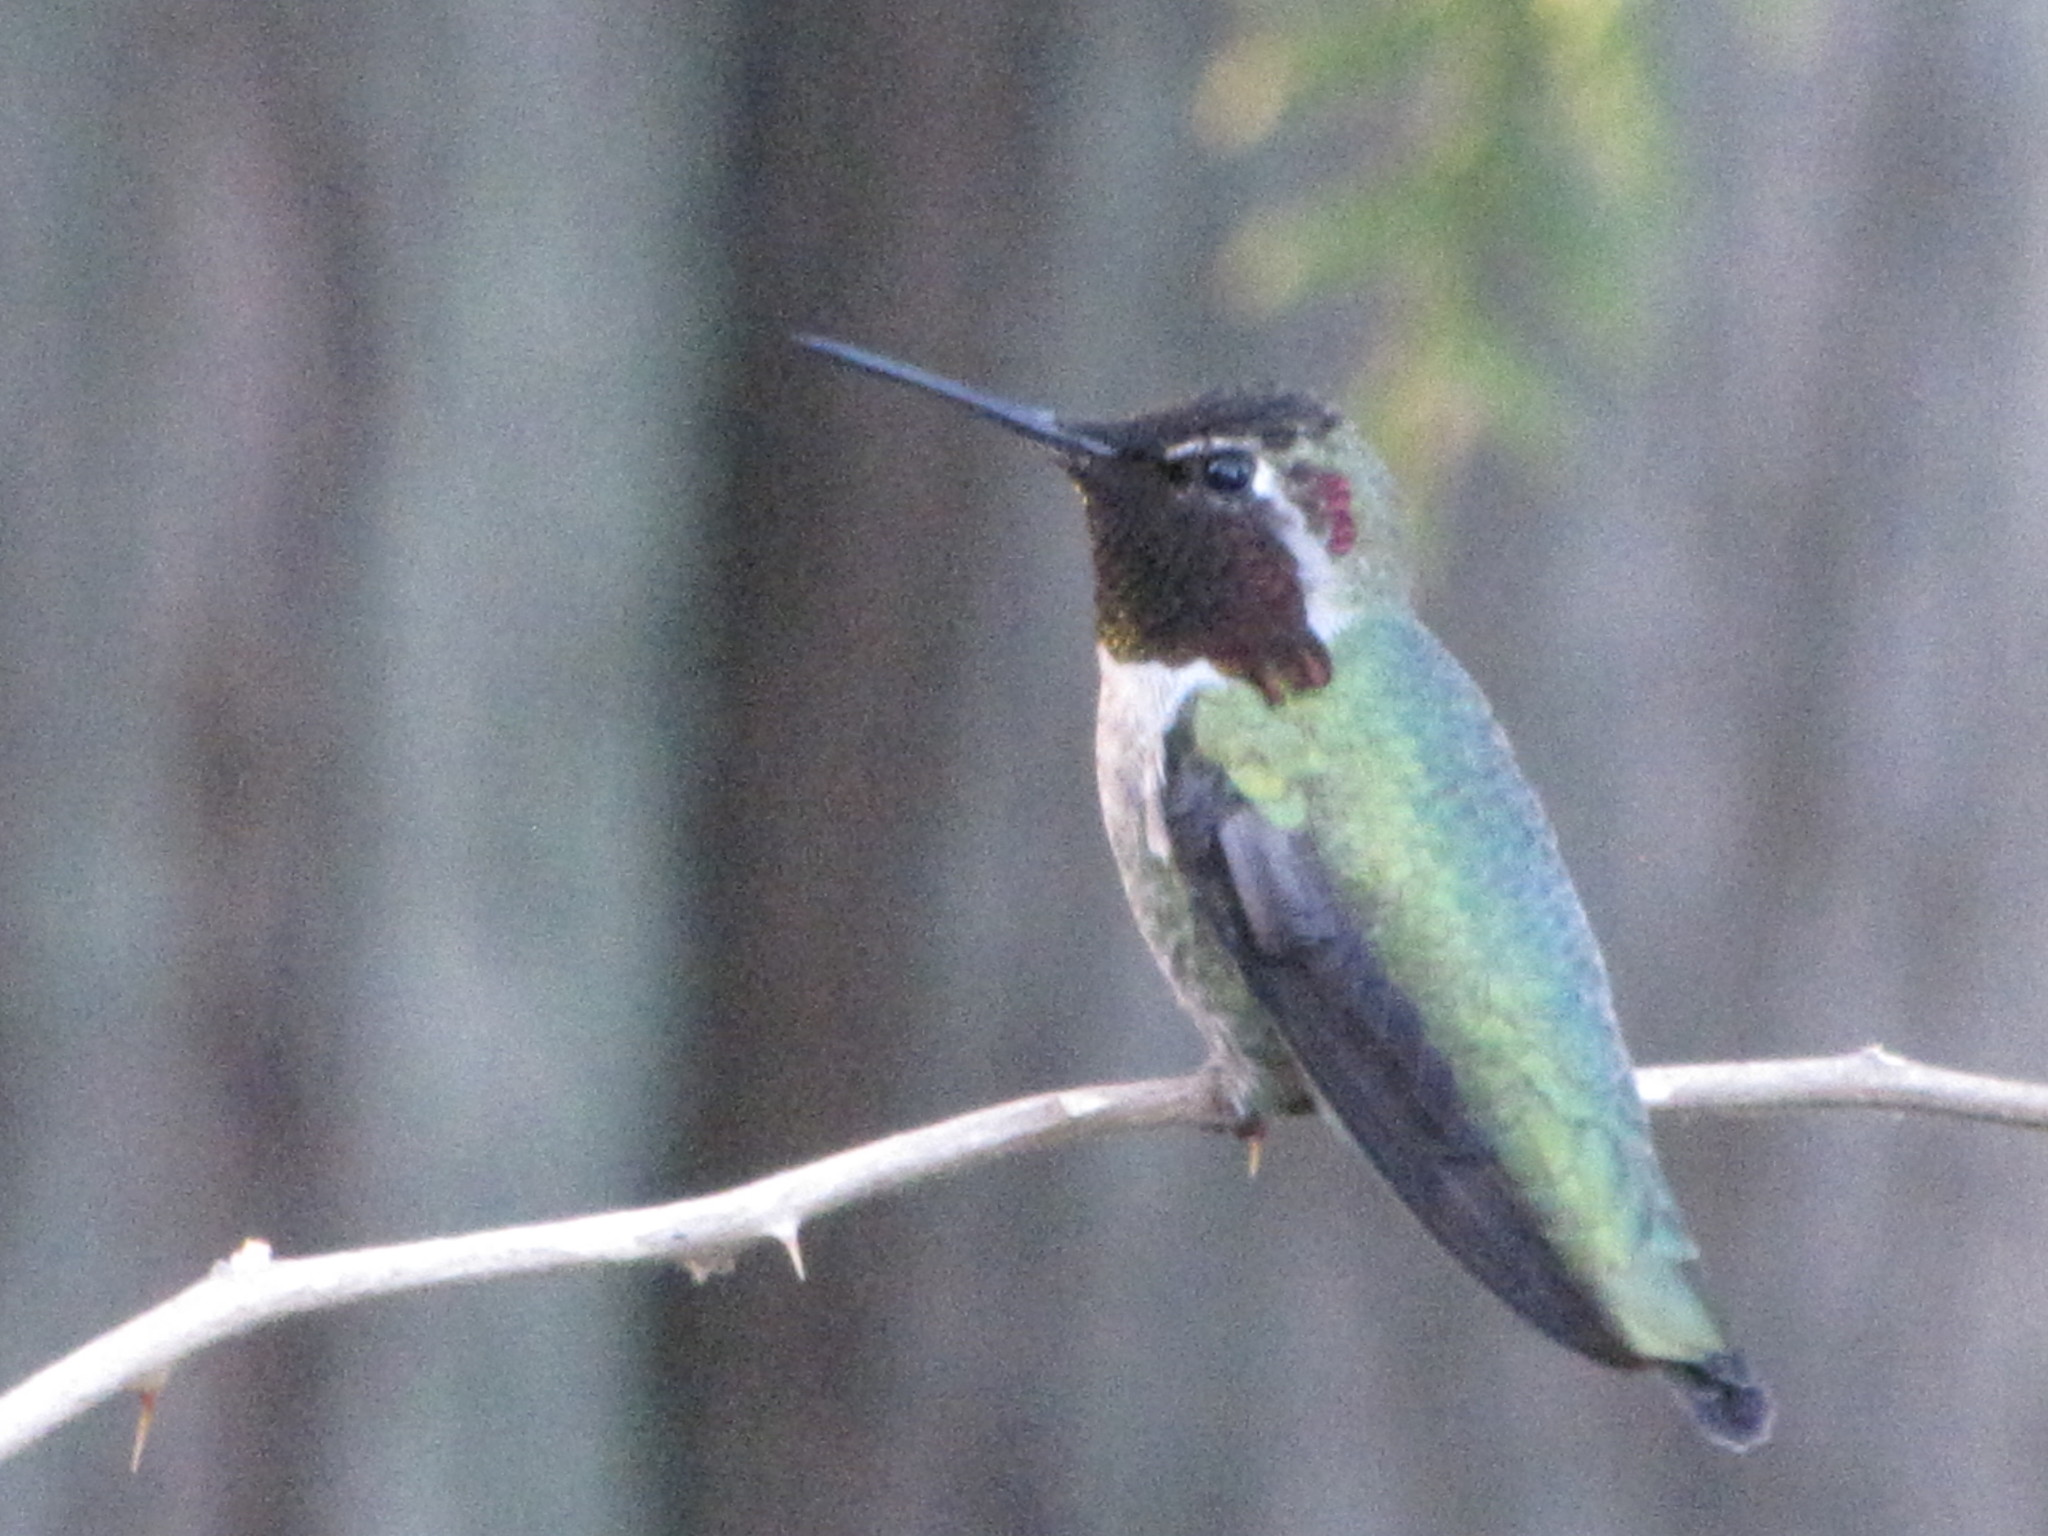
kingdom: Animalia
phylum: Chordata
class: Aves
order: Apodiformes
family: Trochilidae
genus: Calypte
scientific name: Calypte anna
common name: Anna's hummingbird
